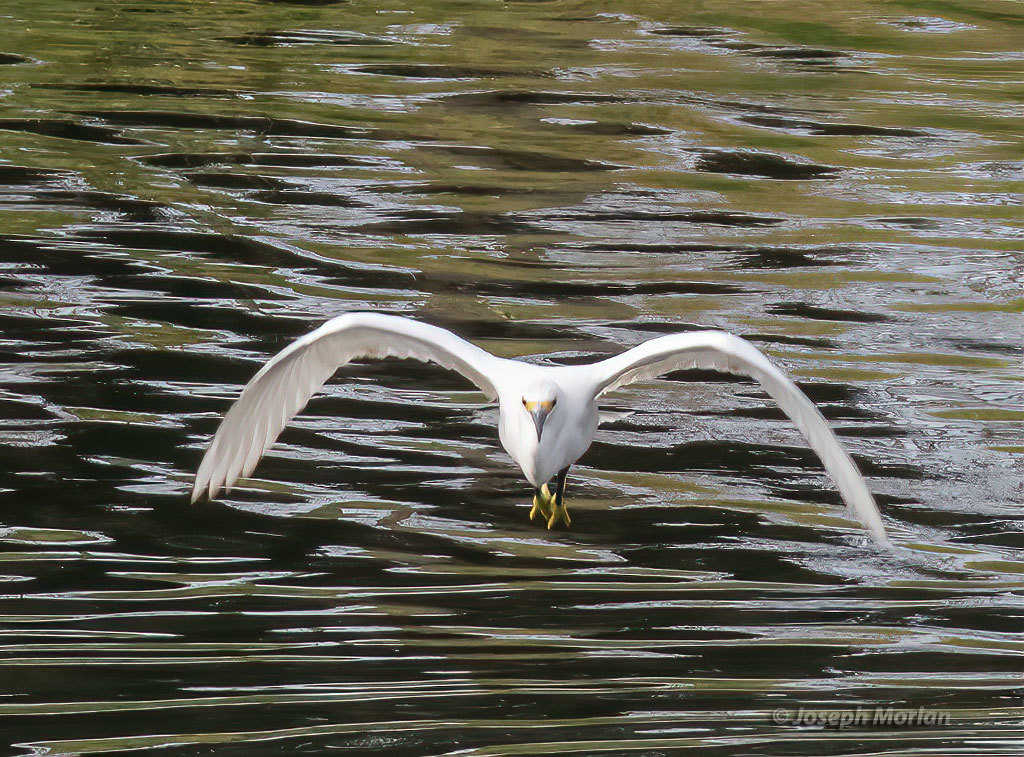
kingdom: Animalia
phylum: Chordata
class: Aves
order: Pelecaniformes
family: Ardeidae
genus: Egretta
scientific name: Egretta thula
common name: Snowy egret
